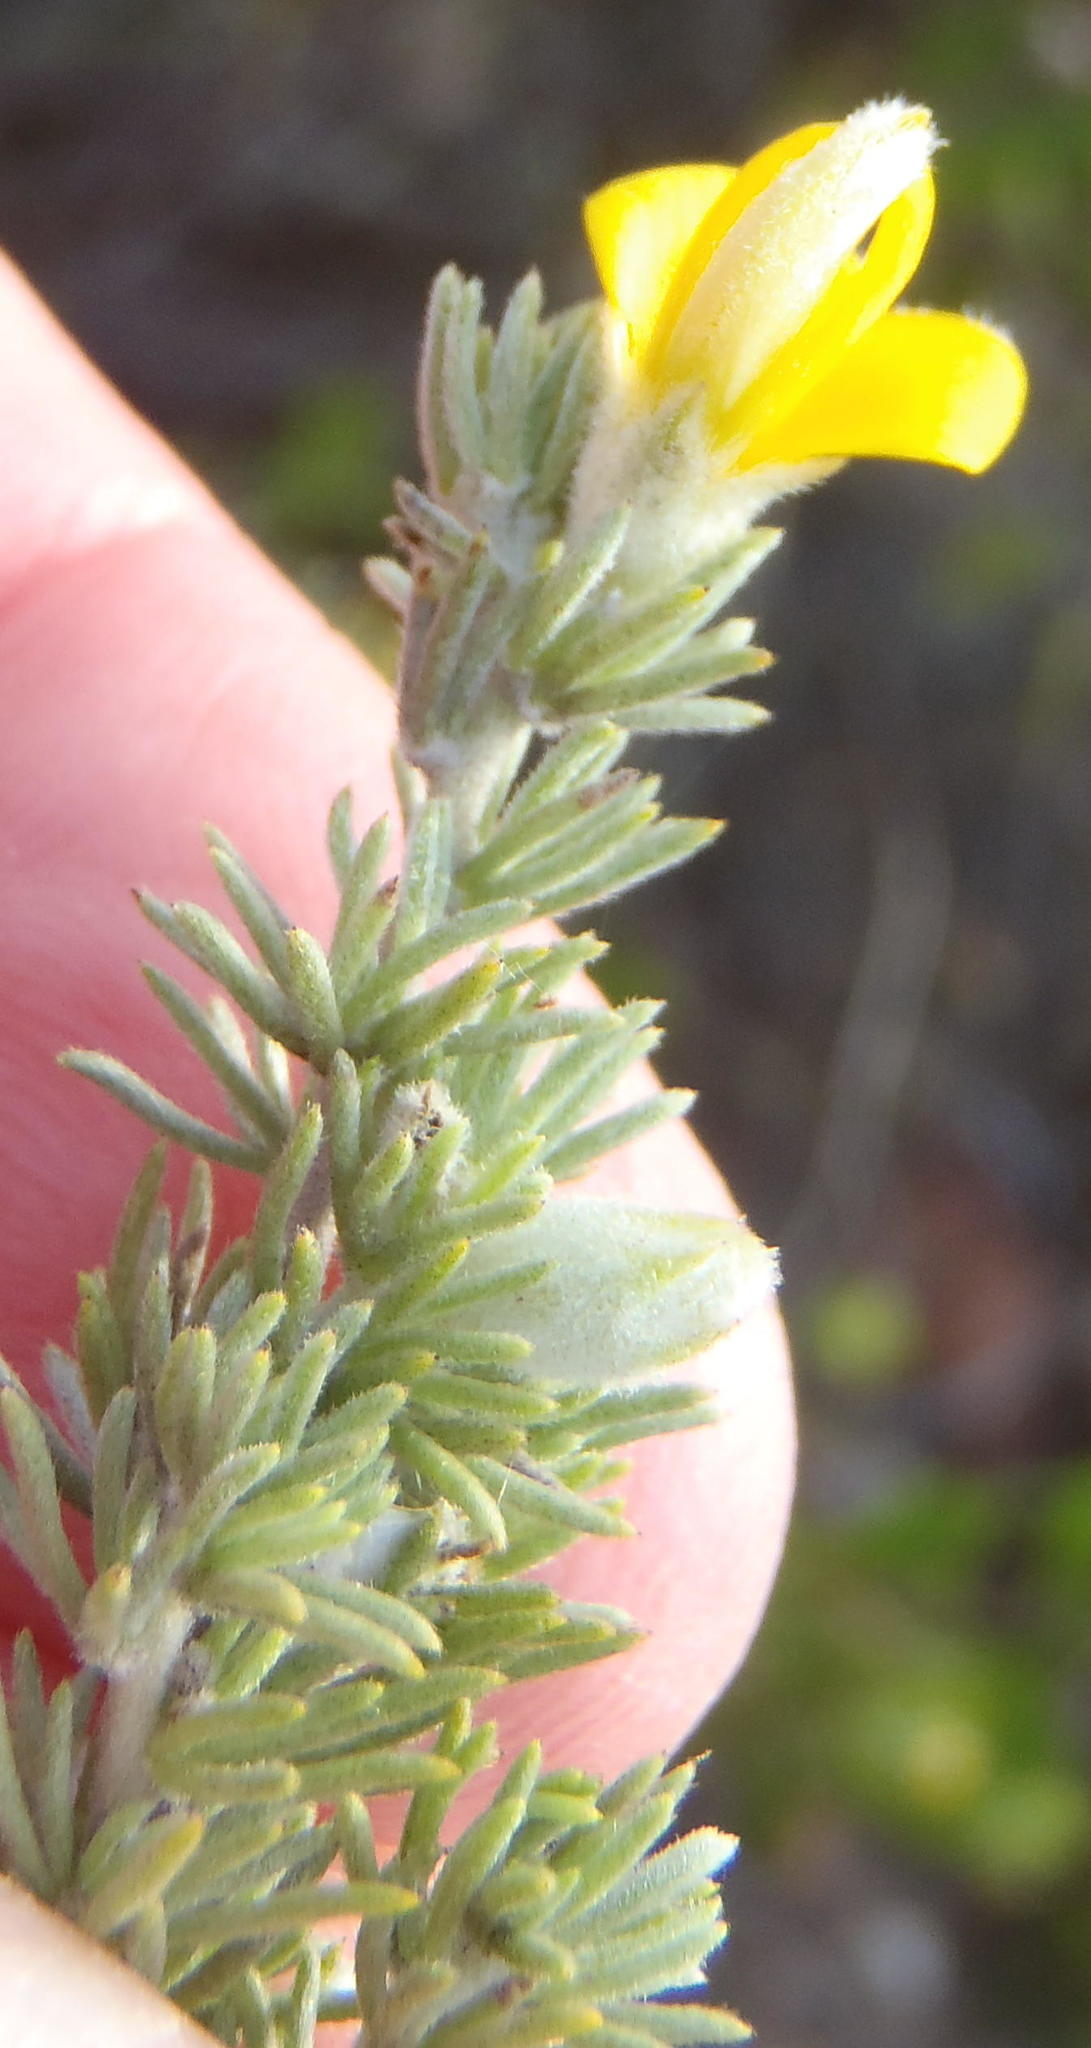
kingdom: Plantae
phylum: Tracheophyta
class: Magnoliopsida
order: Fabales
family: Fabaceae
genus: Aspalathus
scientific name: Aspalathus kougaensis
